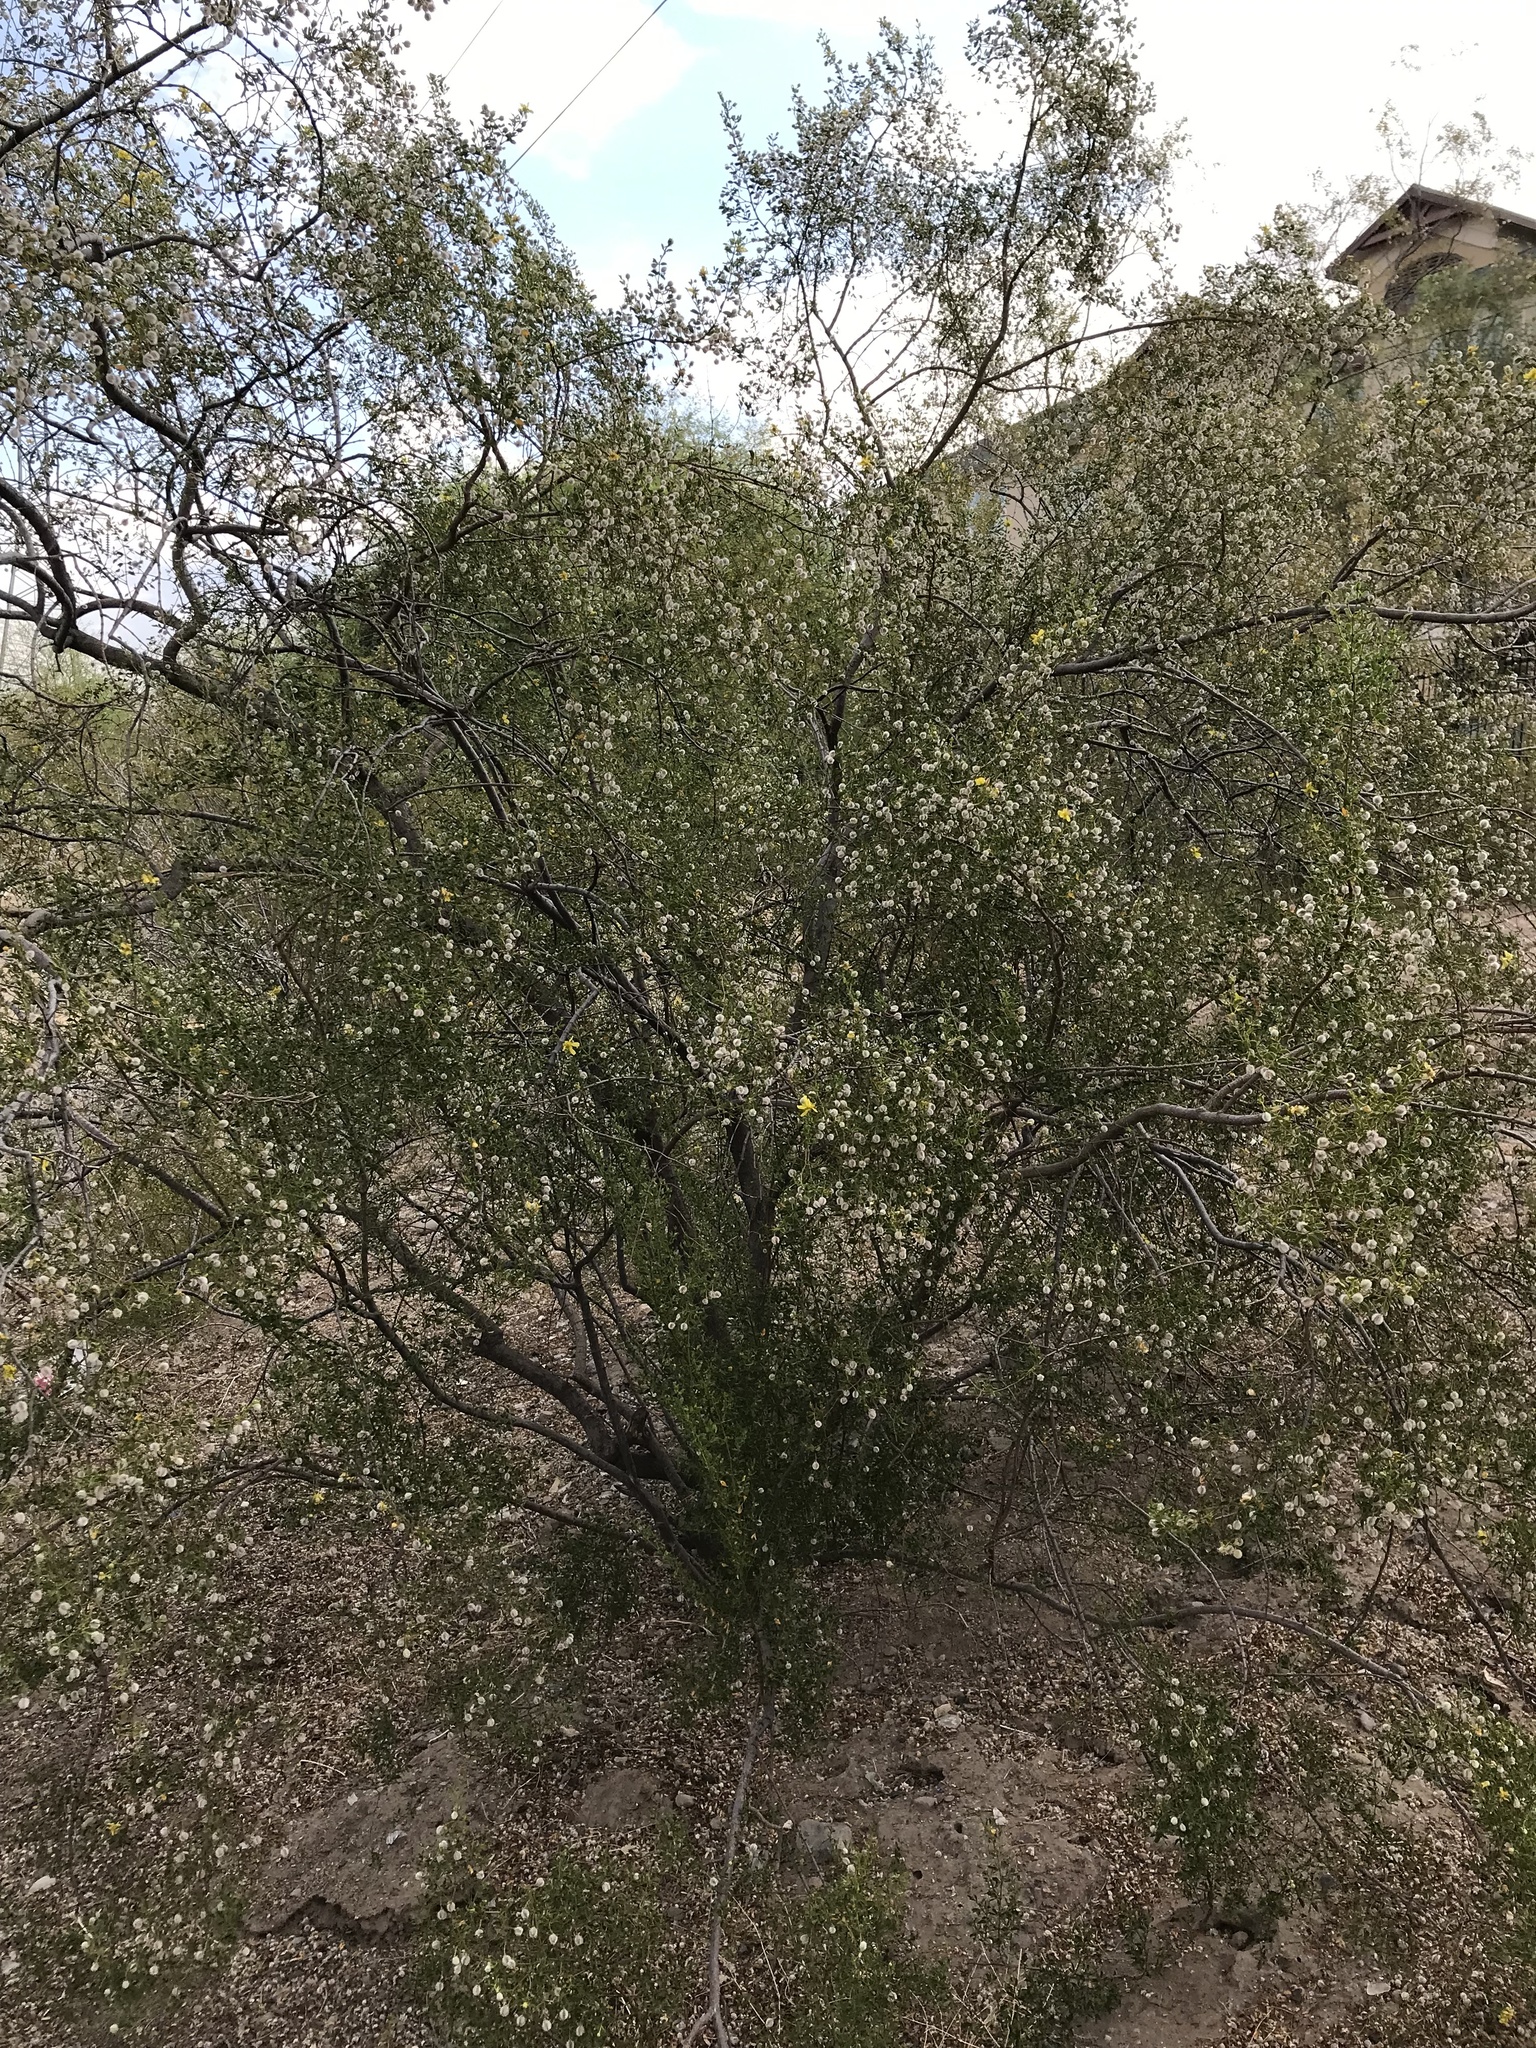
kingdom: Plantae
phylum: Tracheophyta
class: Magnoliopsida
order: Zygophyllales
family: Zygophyllaceae
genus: Larrea
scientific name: Larrea tridentata
